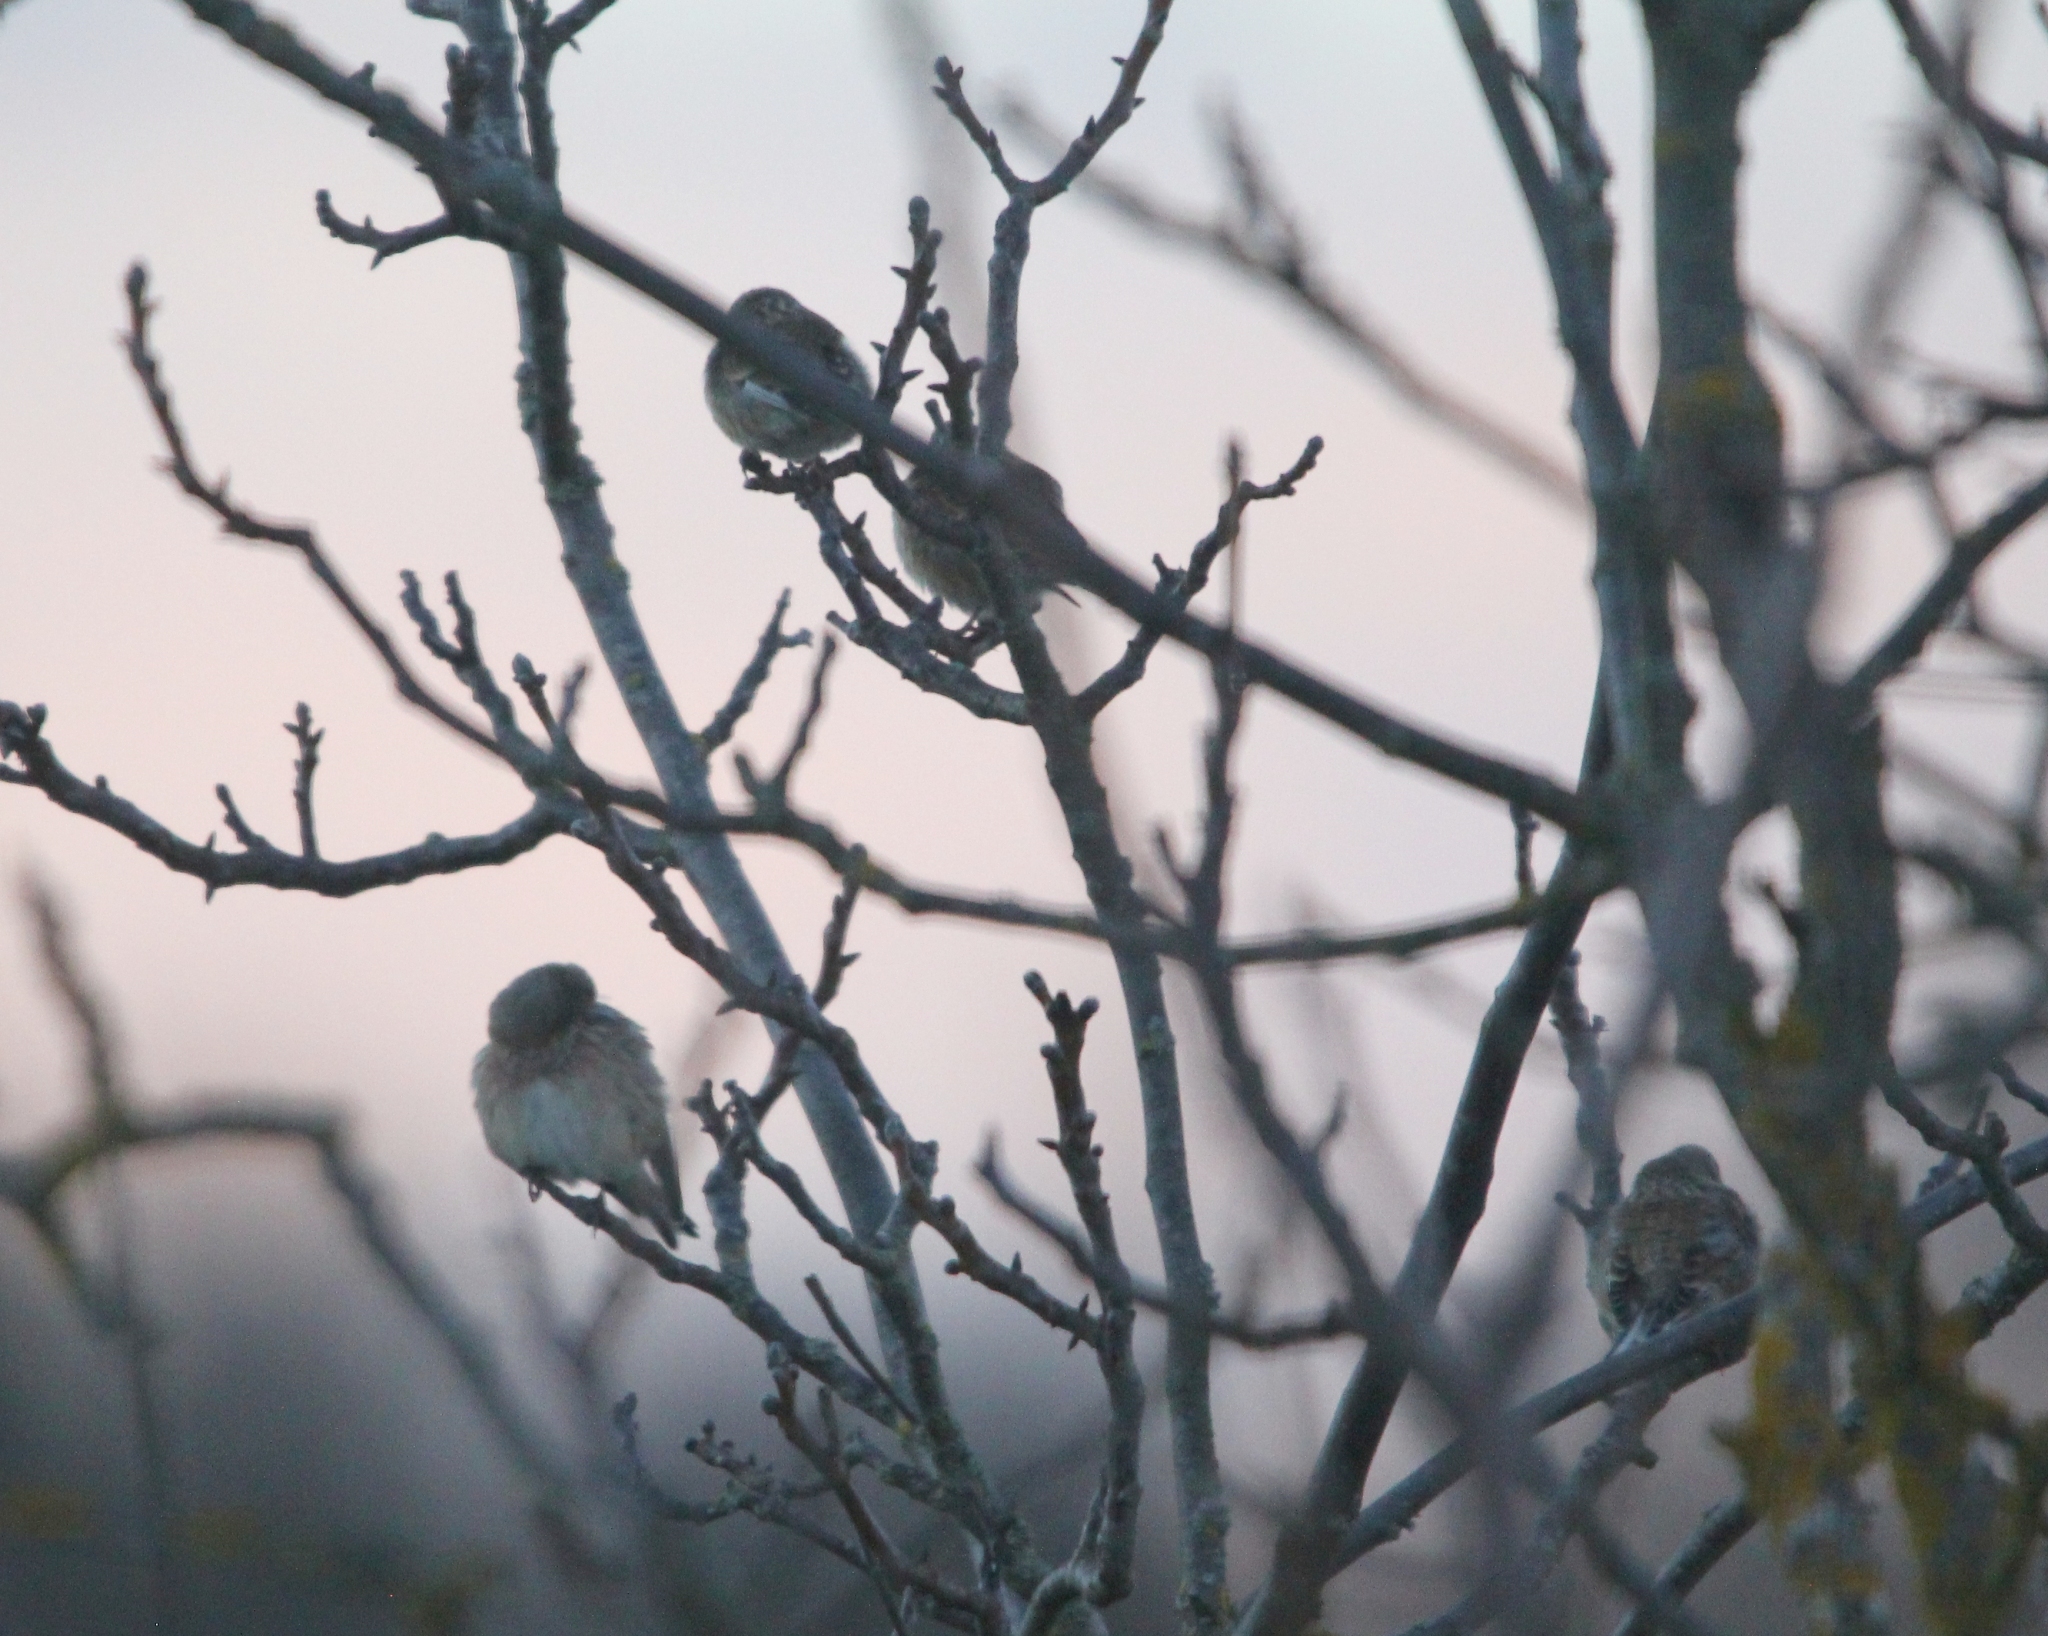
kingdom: Animalia
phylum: Chordata
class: Aves
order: Passeriformes
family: Fringillidae
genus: Linaria
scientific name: Linaria cannabina
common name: Common linnet
